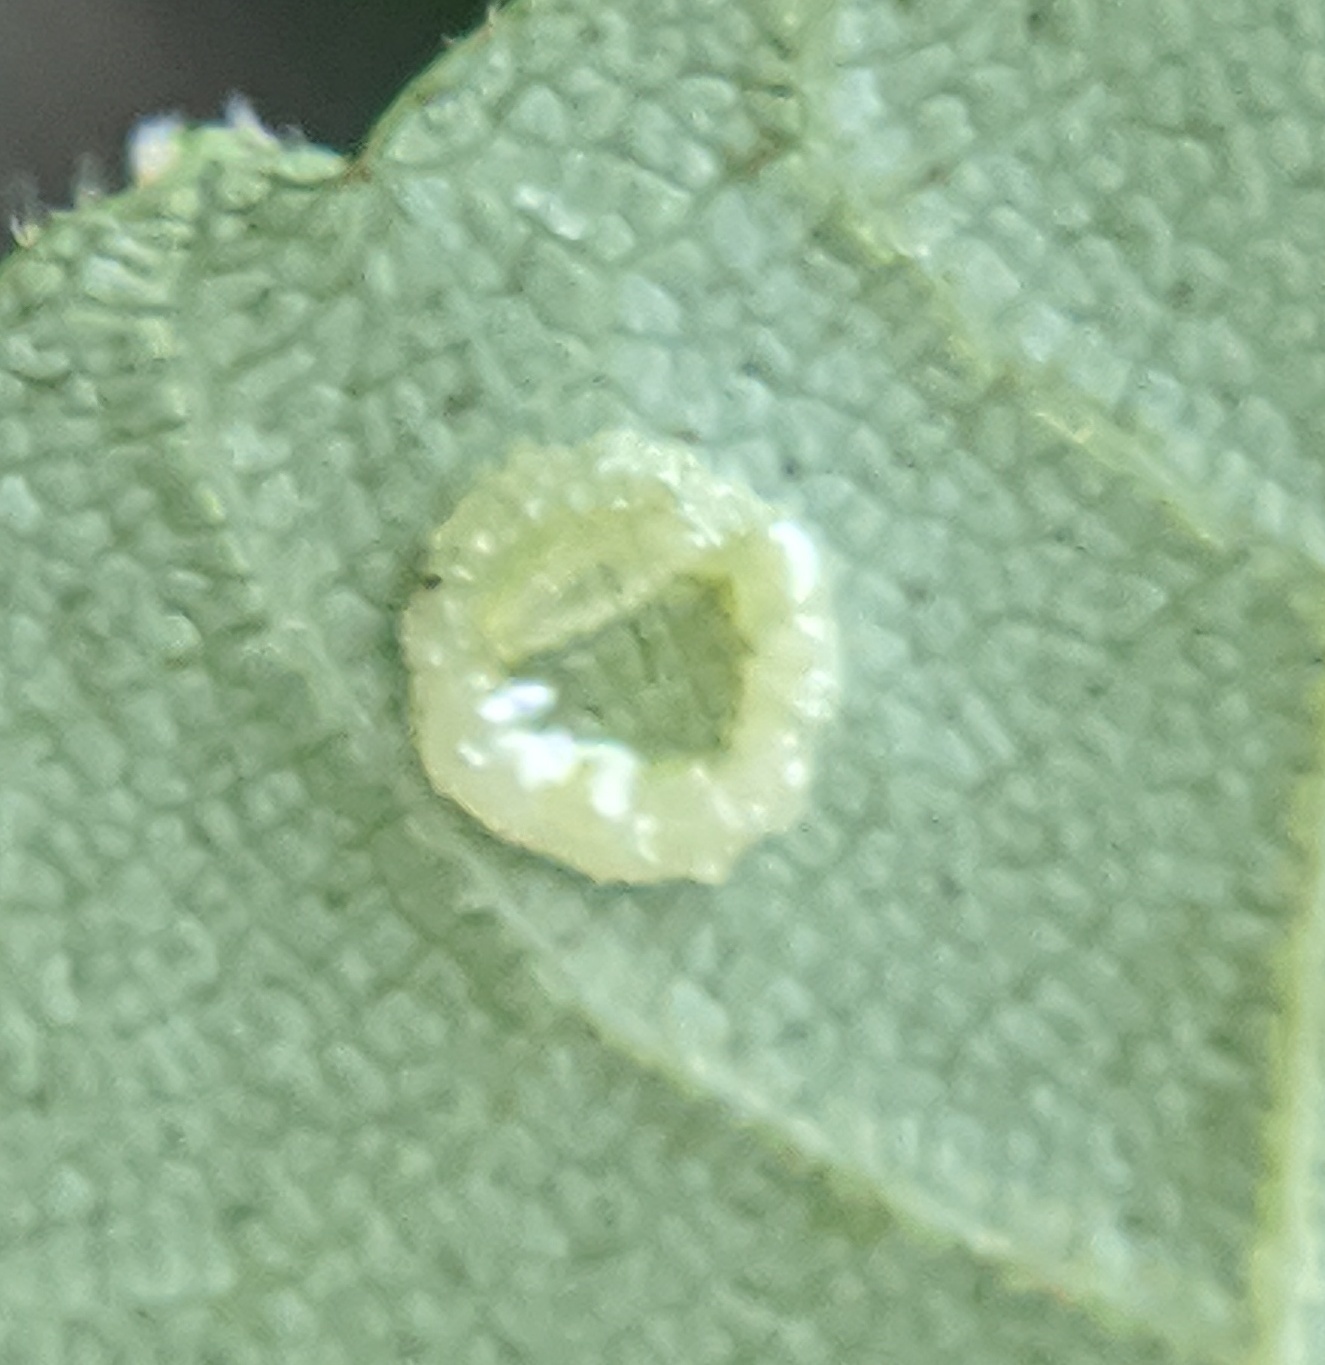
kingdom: Animalia
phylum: Arthropoda
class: Insecta
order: Diptera
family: Cecidomyiidae
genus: Gliaspilota
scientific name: Gliaspilota glutinosa
